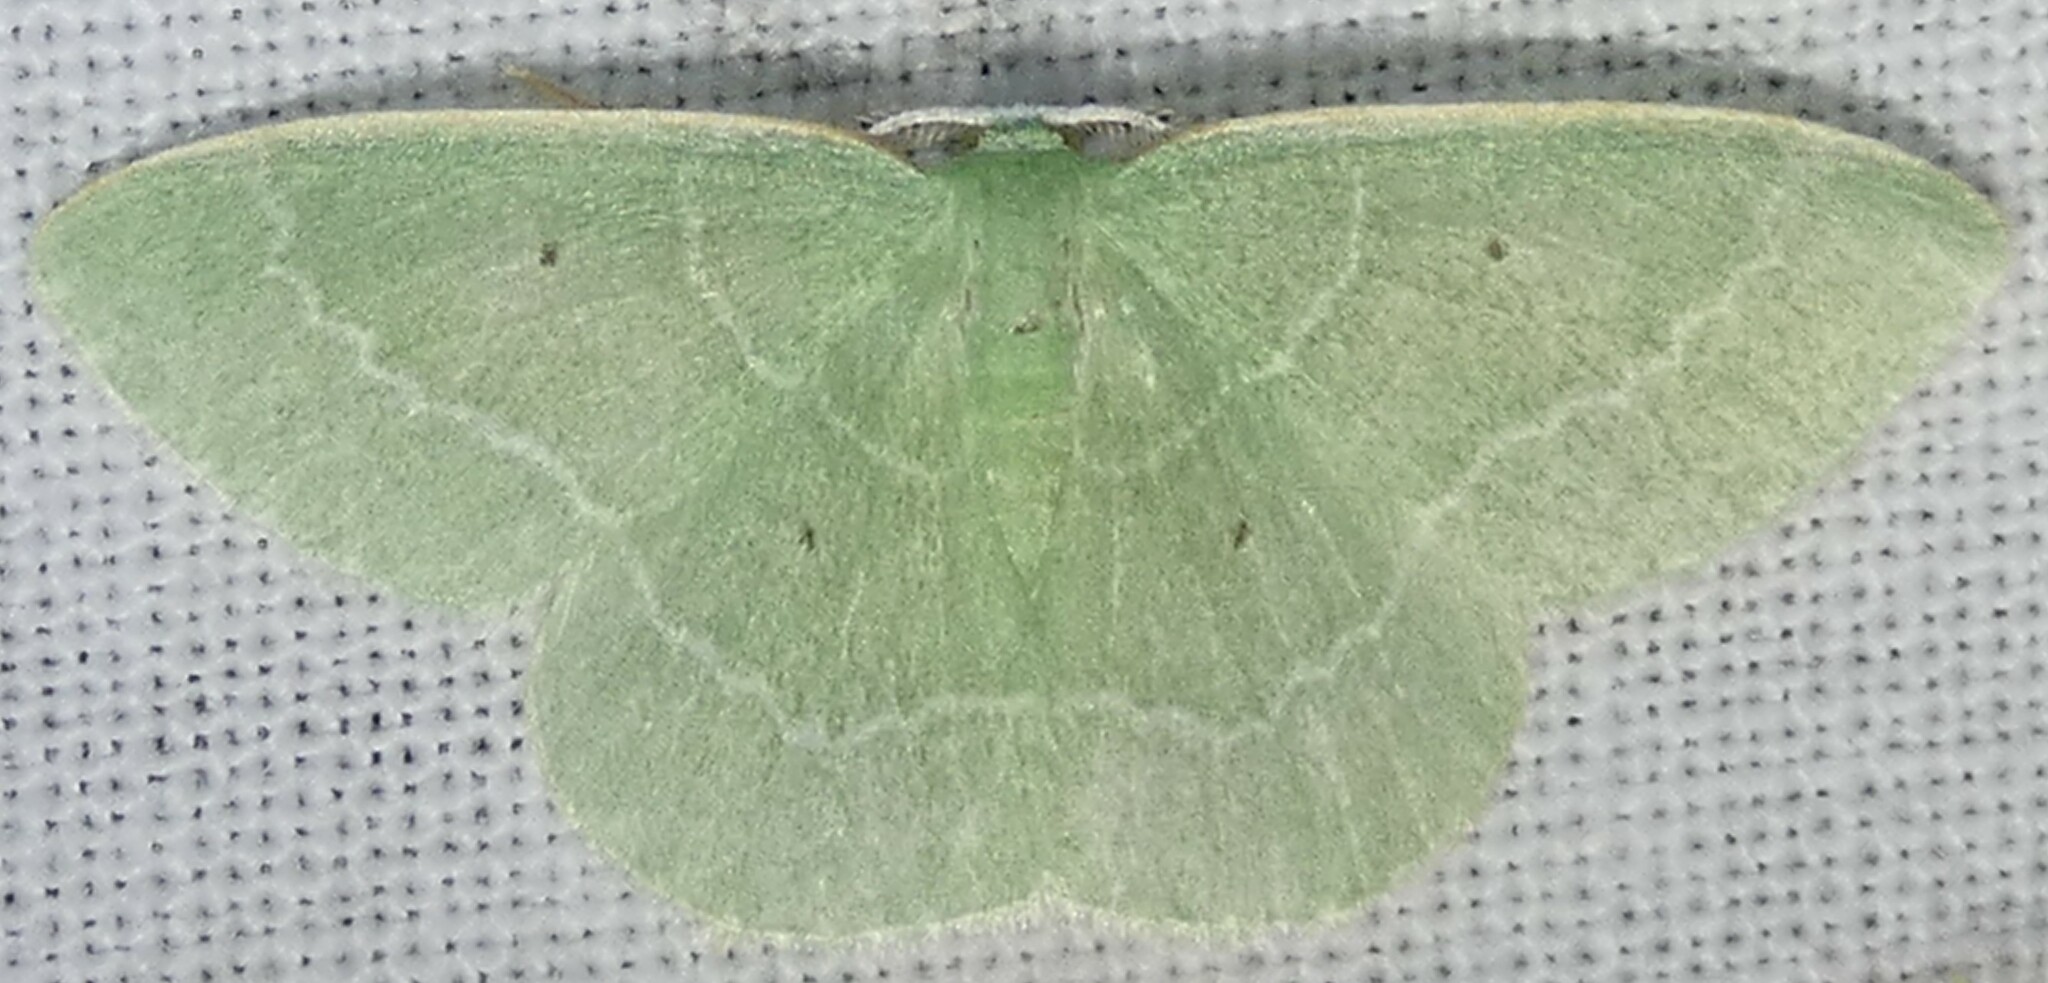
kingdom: Animalia
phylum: Arthropoda
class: Insecta
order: Lepidoptera
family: Geometridae
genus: Nemoria
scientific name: Nemoria elfa
